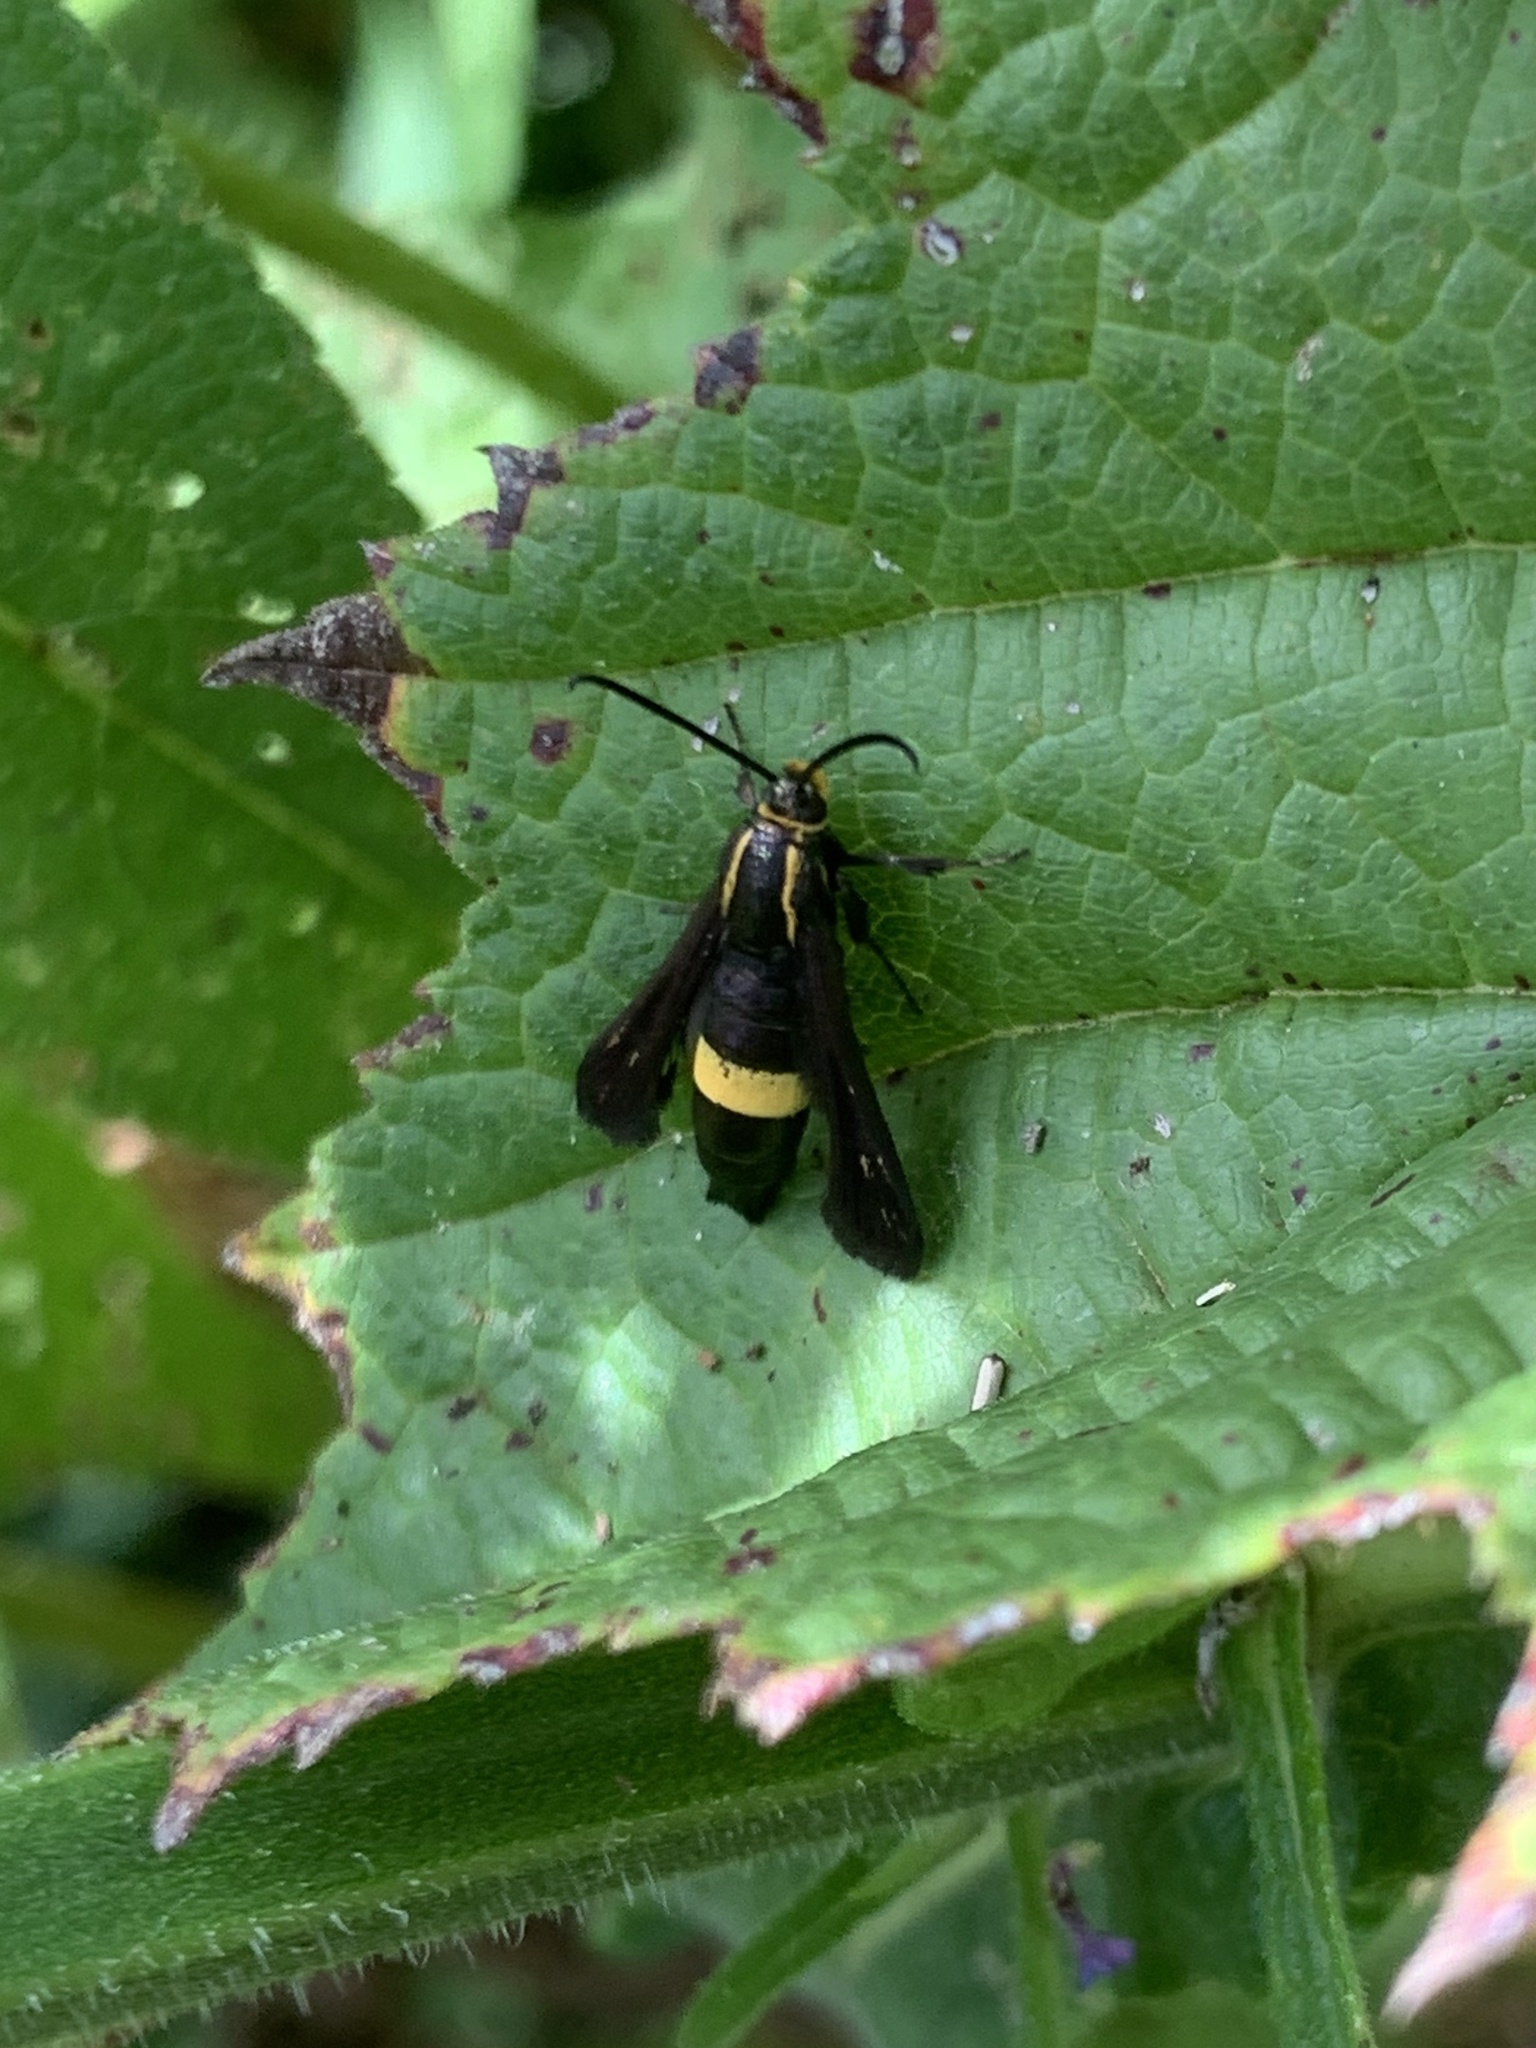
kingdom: Animalia
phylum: Arthropoda
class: Insecta
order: Lepidoptera
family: Sesiidae
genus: Carmenta
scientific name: Carmenta pyralidiformis
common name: Boneset borer moth
